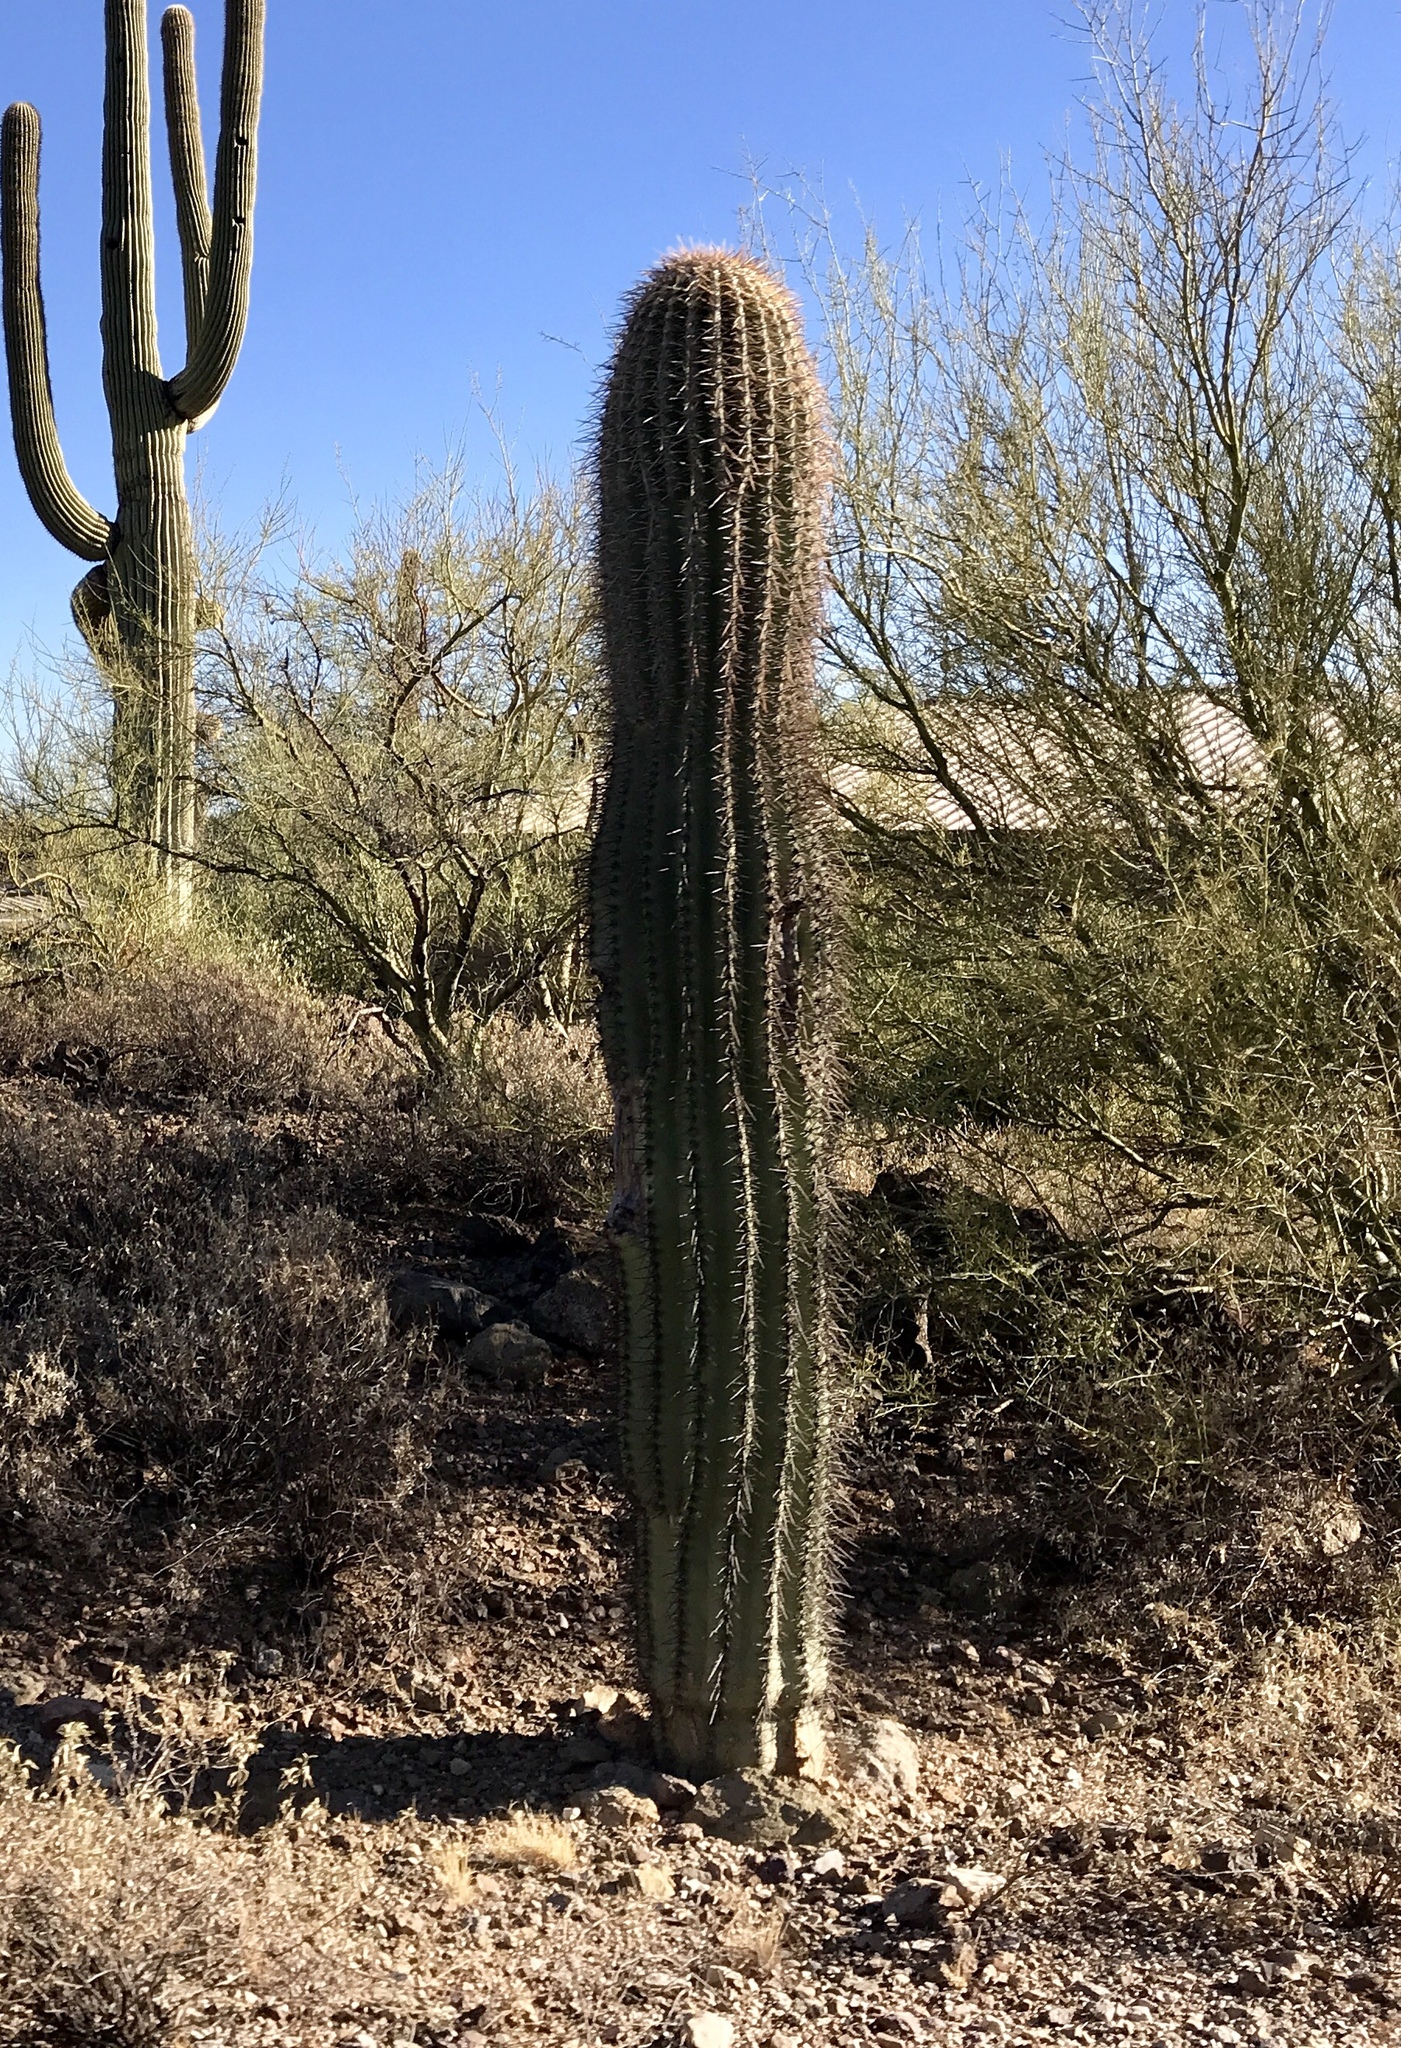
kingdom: Plantae
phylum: Tracheophyta
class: Magnoliopsida
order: Caryophyllales
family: Cactaceae
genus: Carnegiea
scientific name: Carnegiea gigantea
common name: Saguaro
